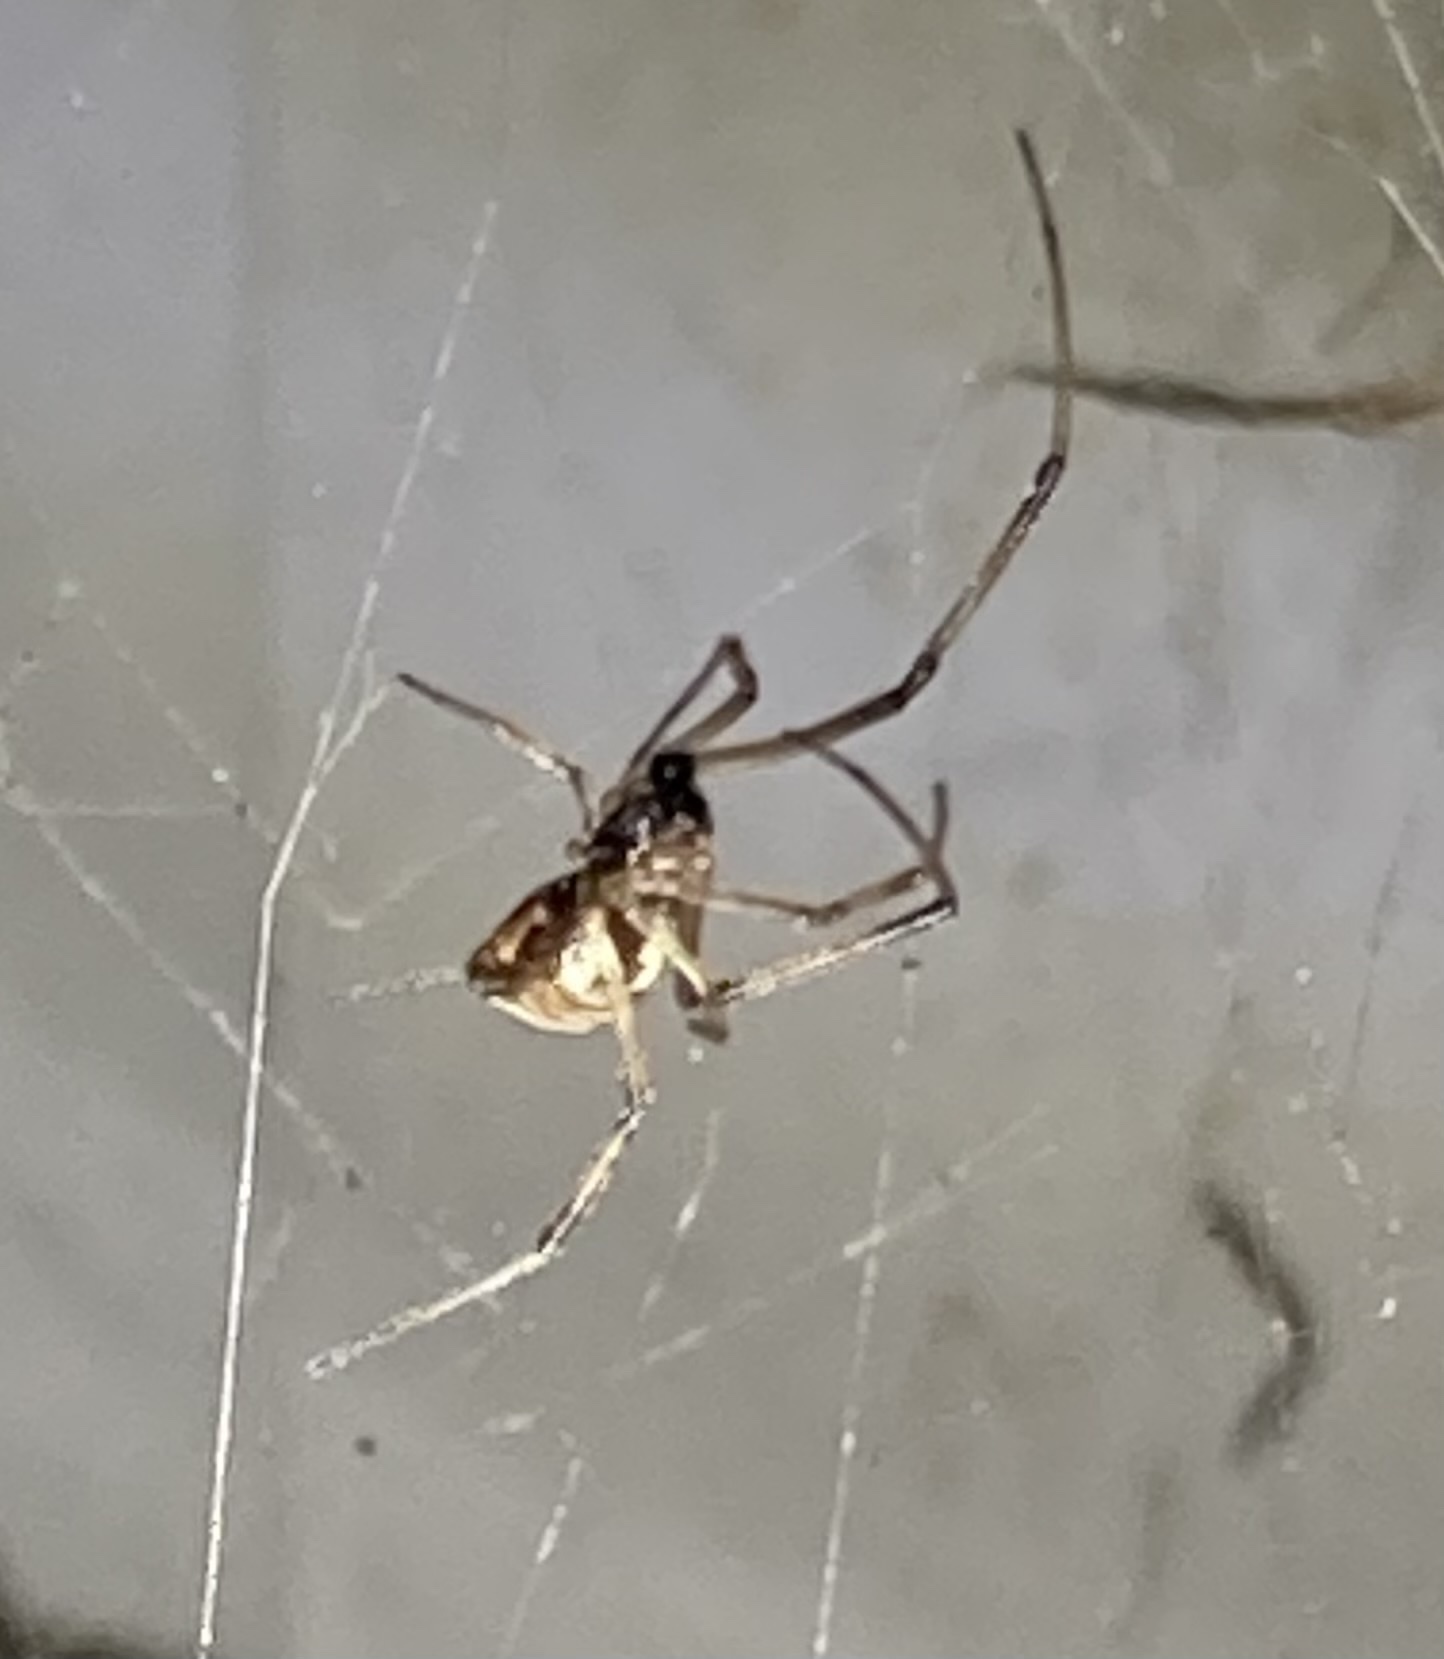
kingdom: Animalia
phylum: Arthropoda
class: Arachnida
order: Araneae
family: Theridiidae
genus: Latrodectus
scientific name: Latrodectus geometricus
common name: Brown widow spider
